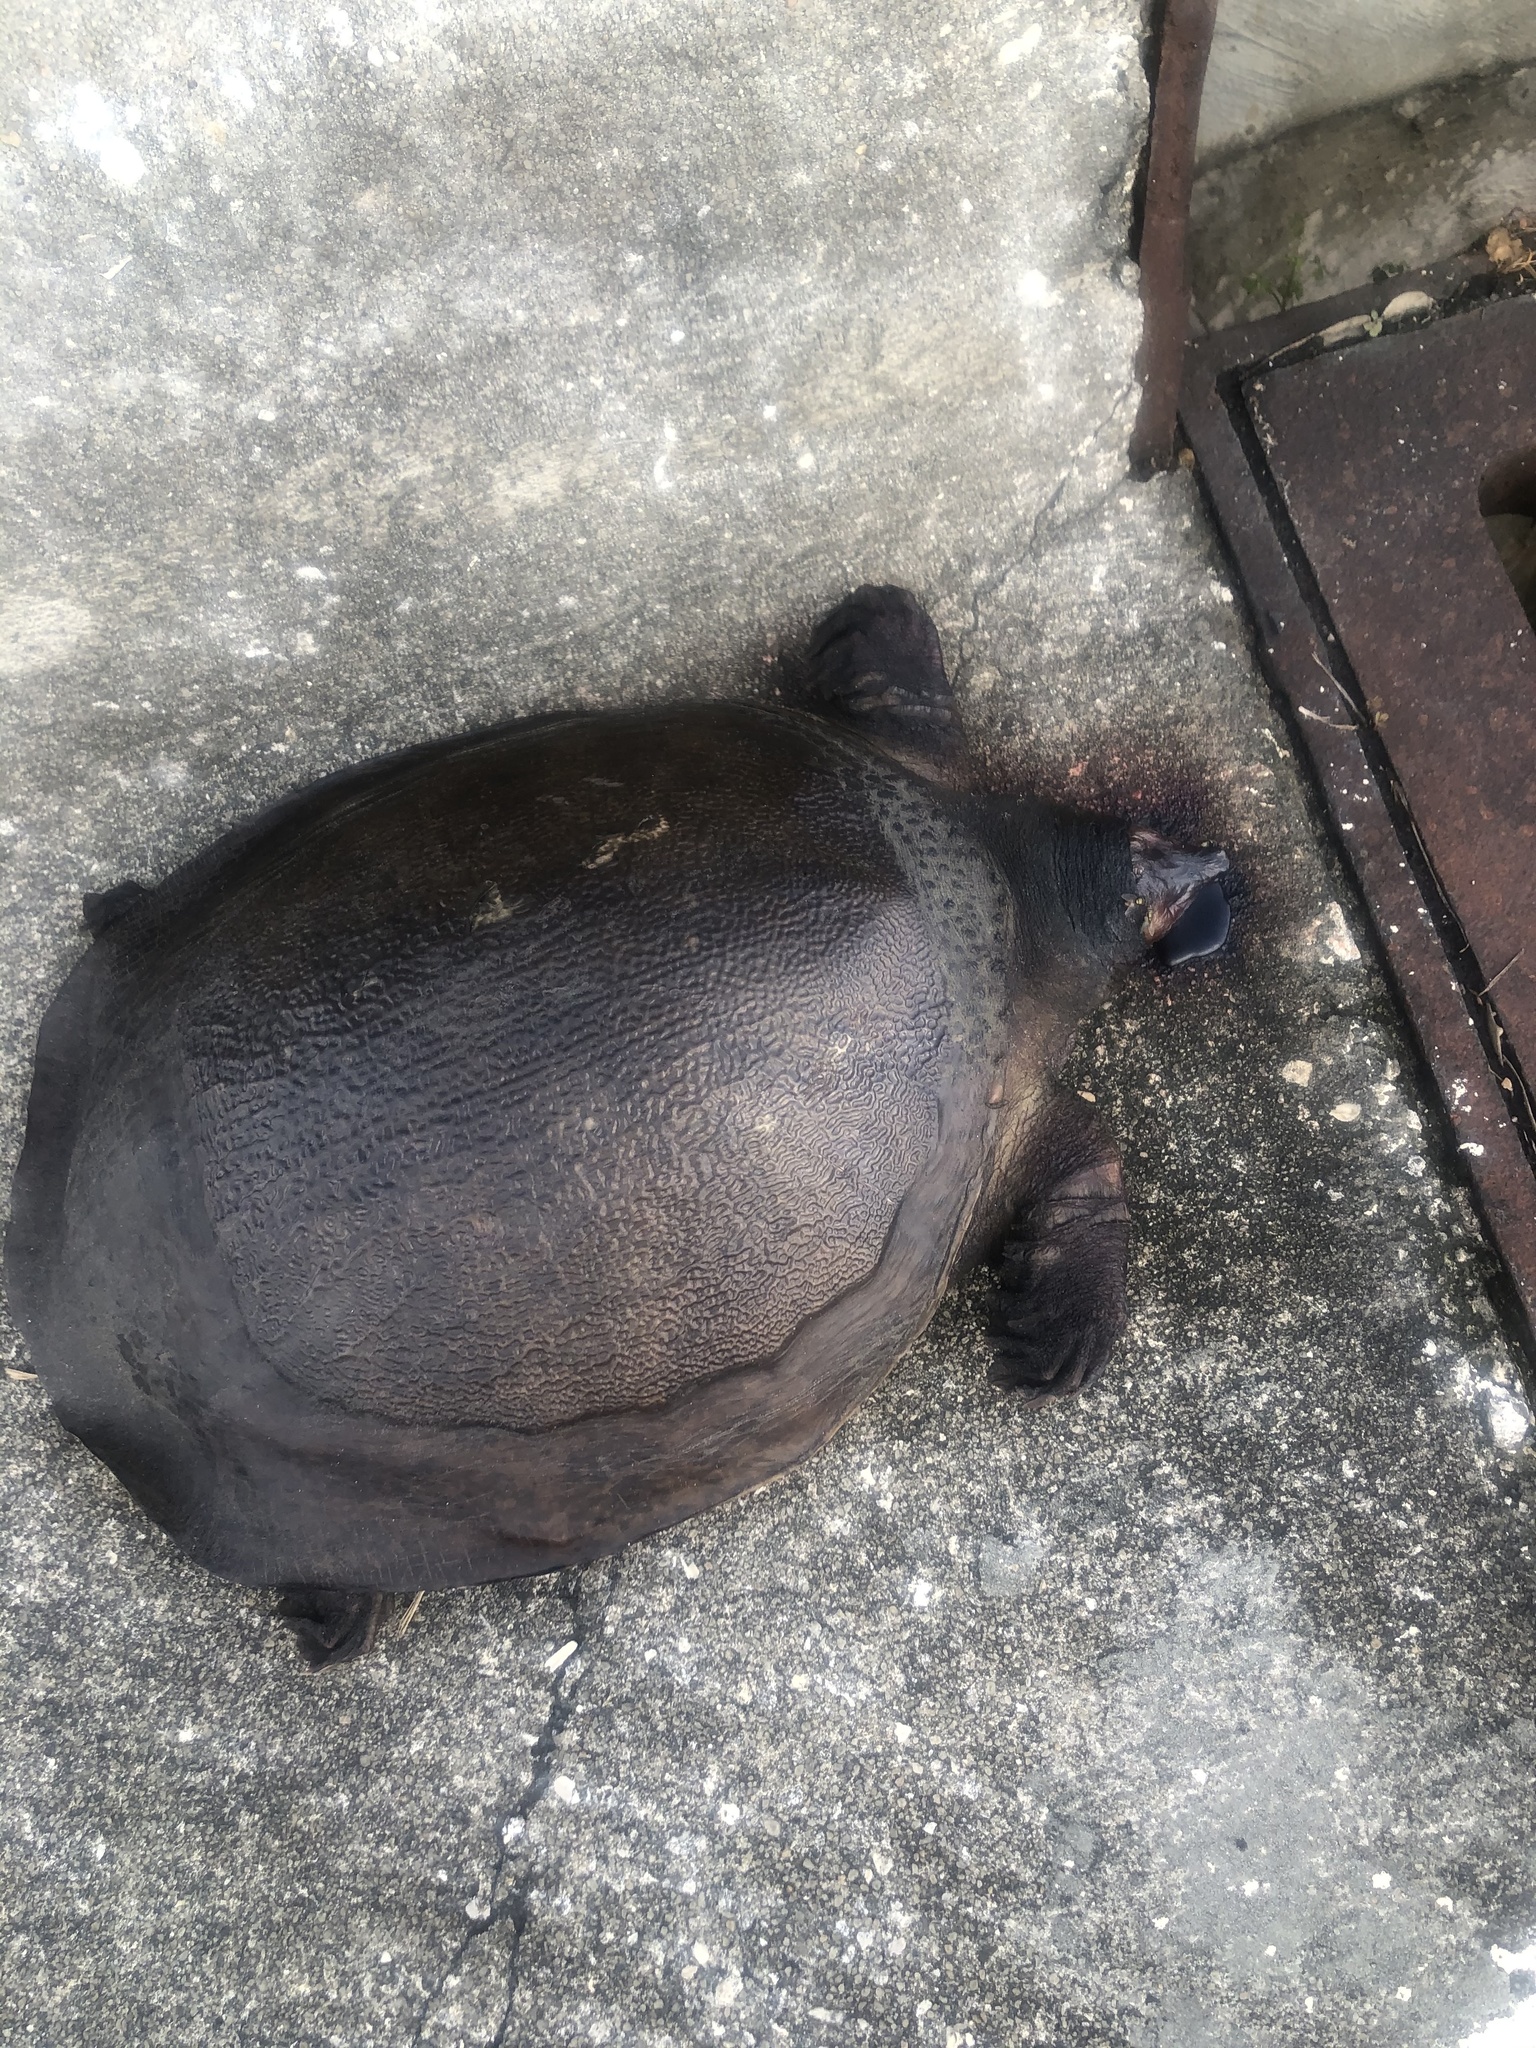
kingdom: Animalia
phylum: Chordata
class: Testudines
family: Trionychidae
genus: Apalone
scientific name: Apalone ferox
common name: Florida softshell turtle
